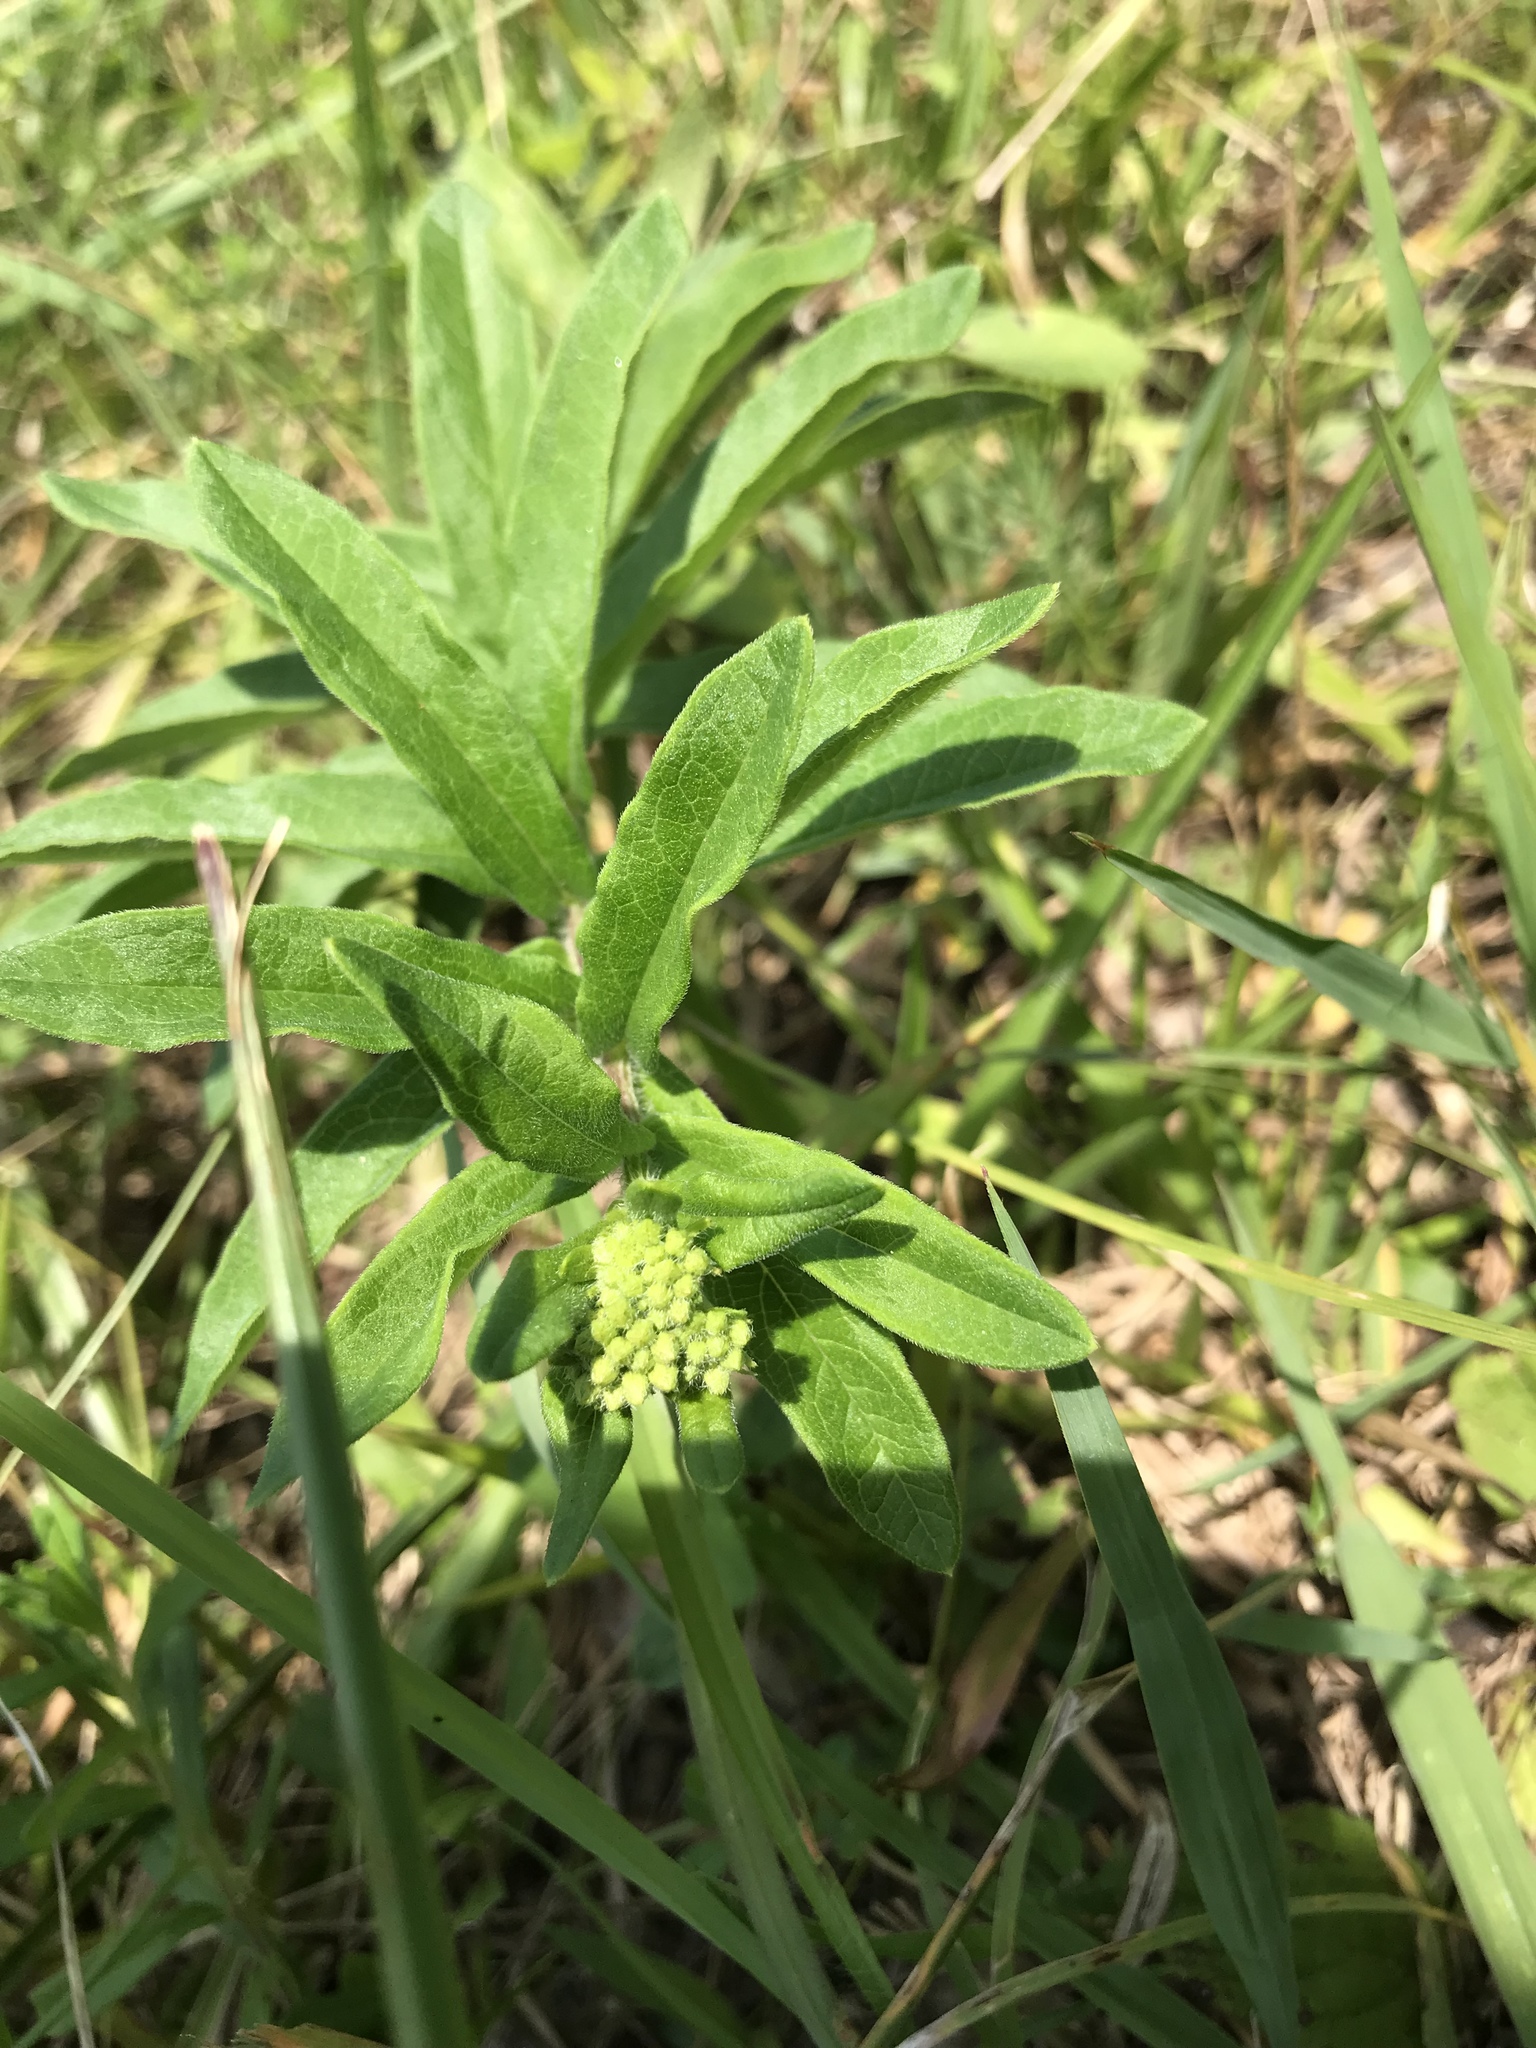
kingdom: Plantae
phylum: Tracheophyta
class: Magnoliopsida
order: Gentianales
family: Apocynaceae
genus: Asclepias
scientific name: Asclepias tuberosa
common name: Butterfly milkweed
